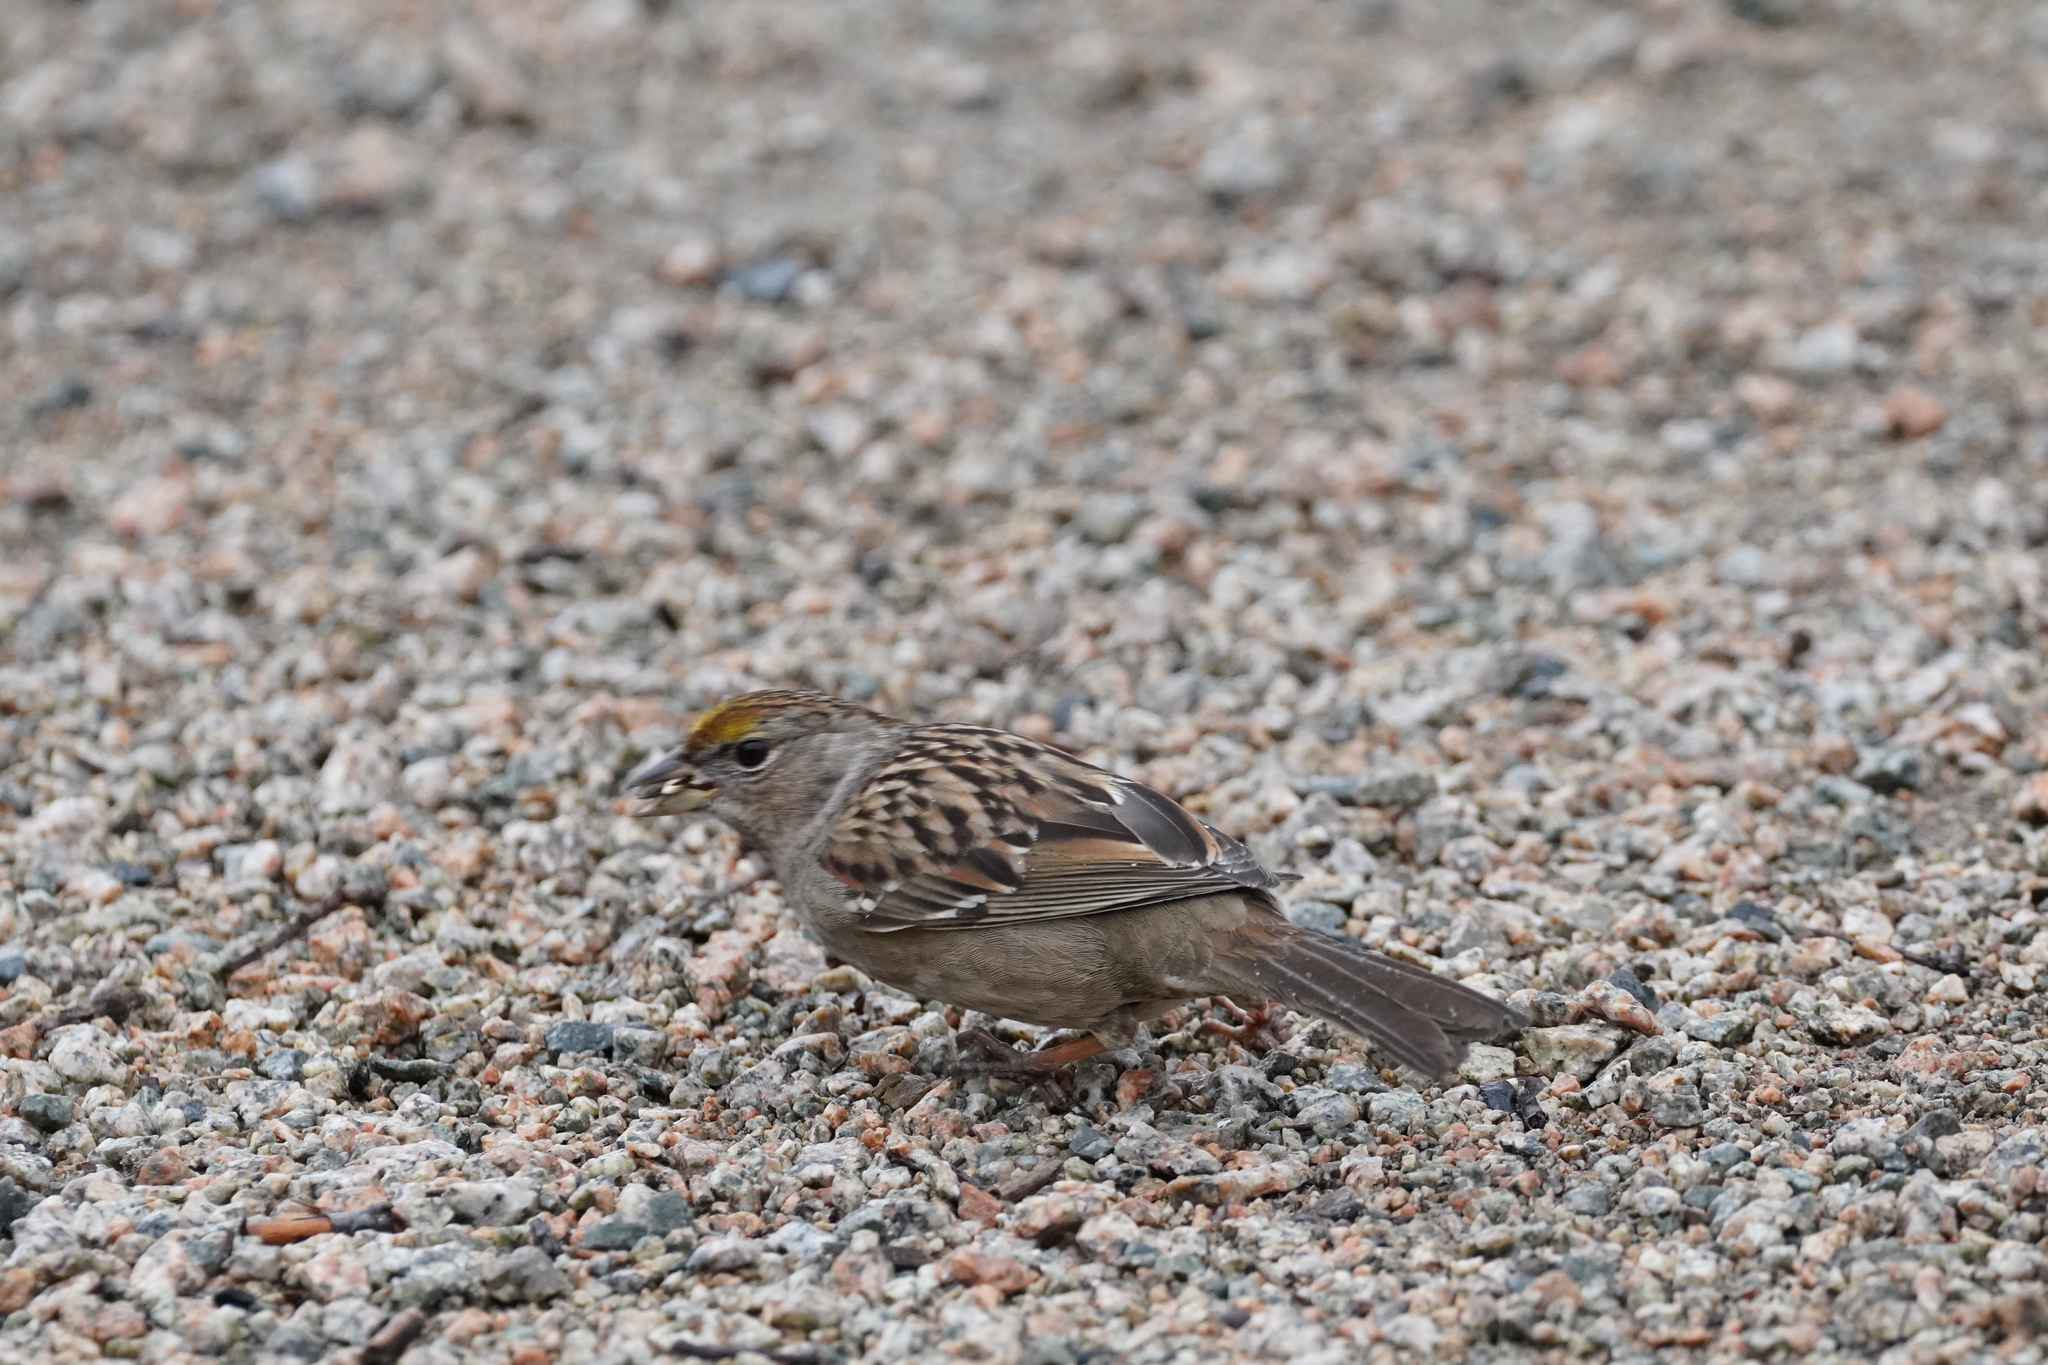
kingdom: Animalia
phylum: Chordata
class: Aves
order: Passeriformes
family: Passerellidae
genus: Zonotrichia
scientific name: Zonotrichia atricapilla
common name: Golden-crowned sparrow
